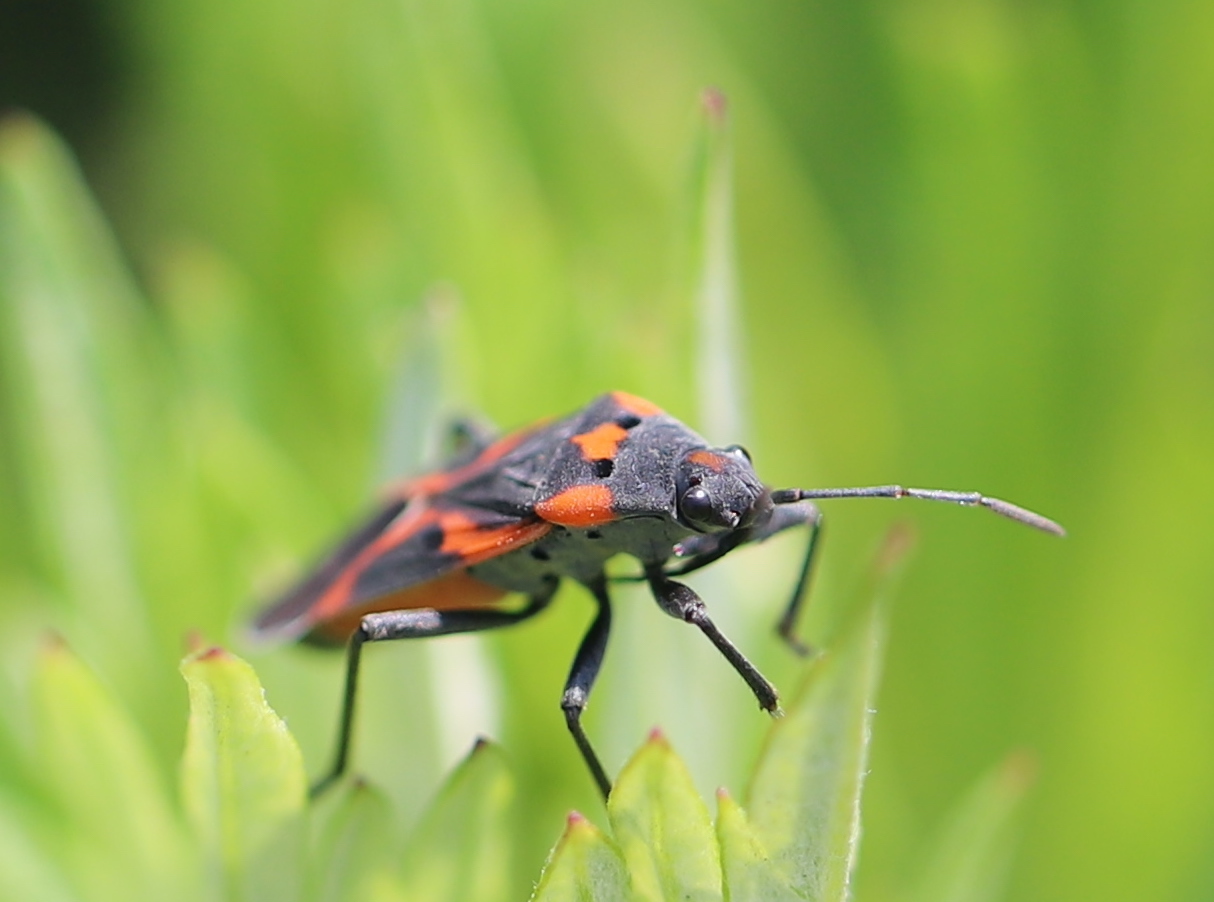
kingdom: Animalia
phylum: Arthropoda
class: Insecta
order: Hemiptera
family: Lygaeidae
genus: Lygaeus
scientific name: Lygaeus kalmii
